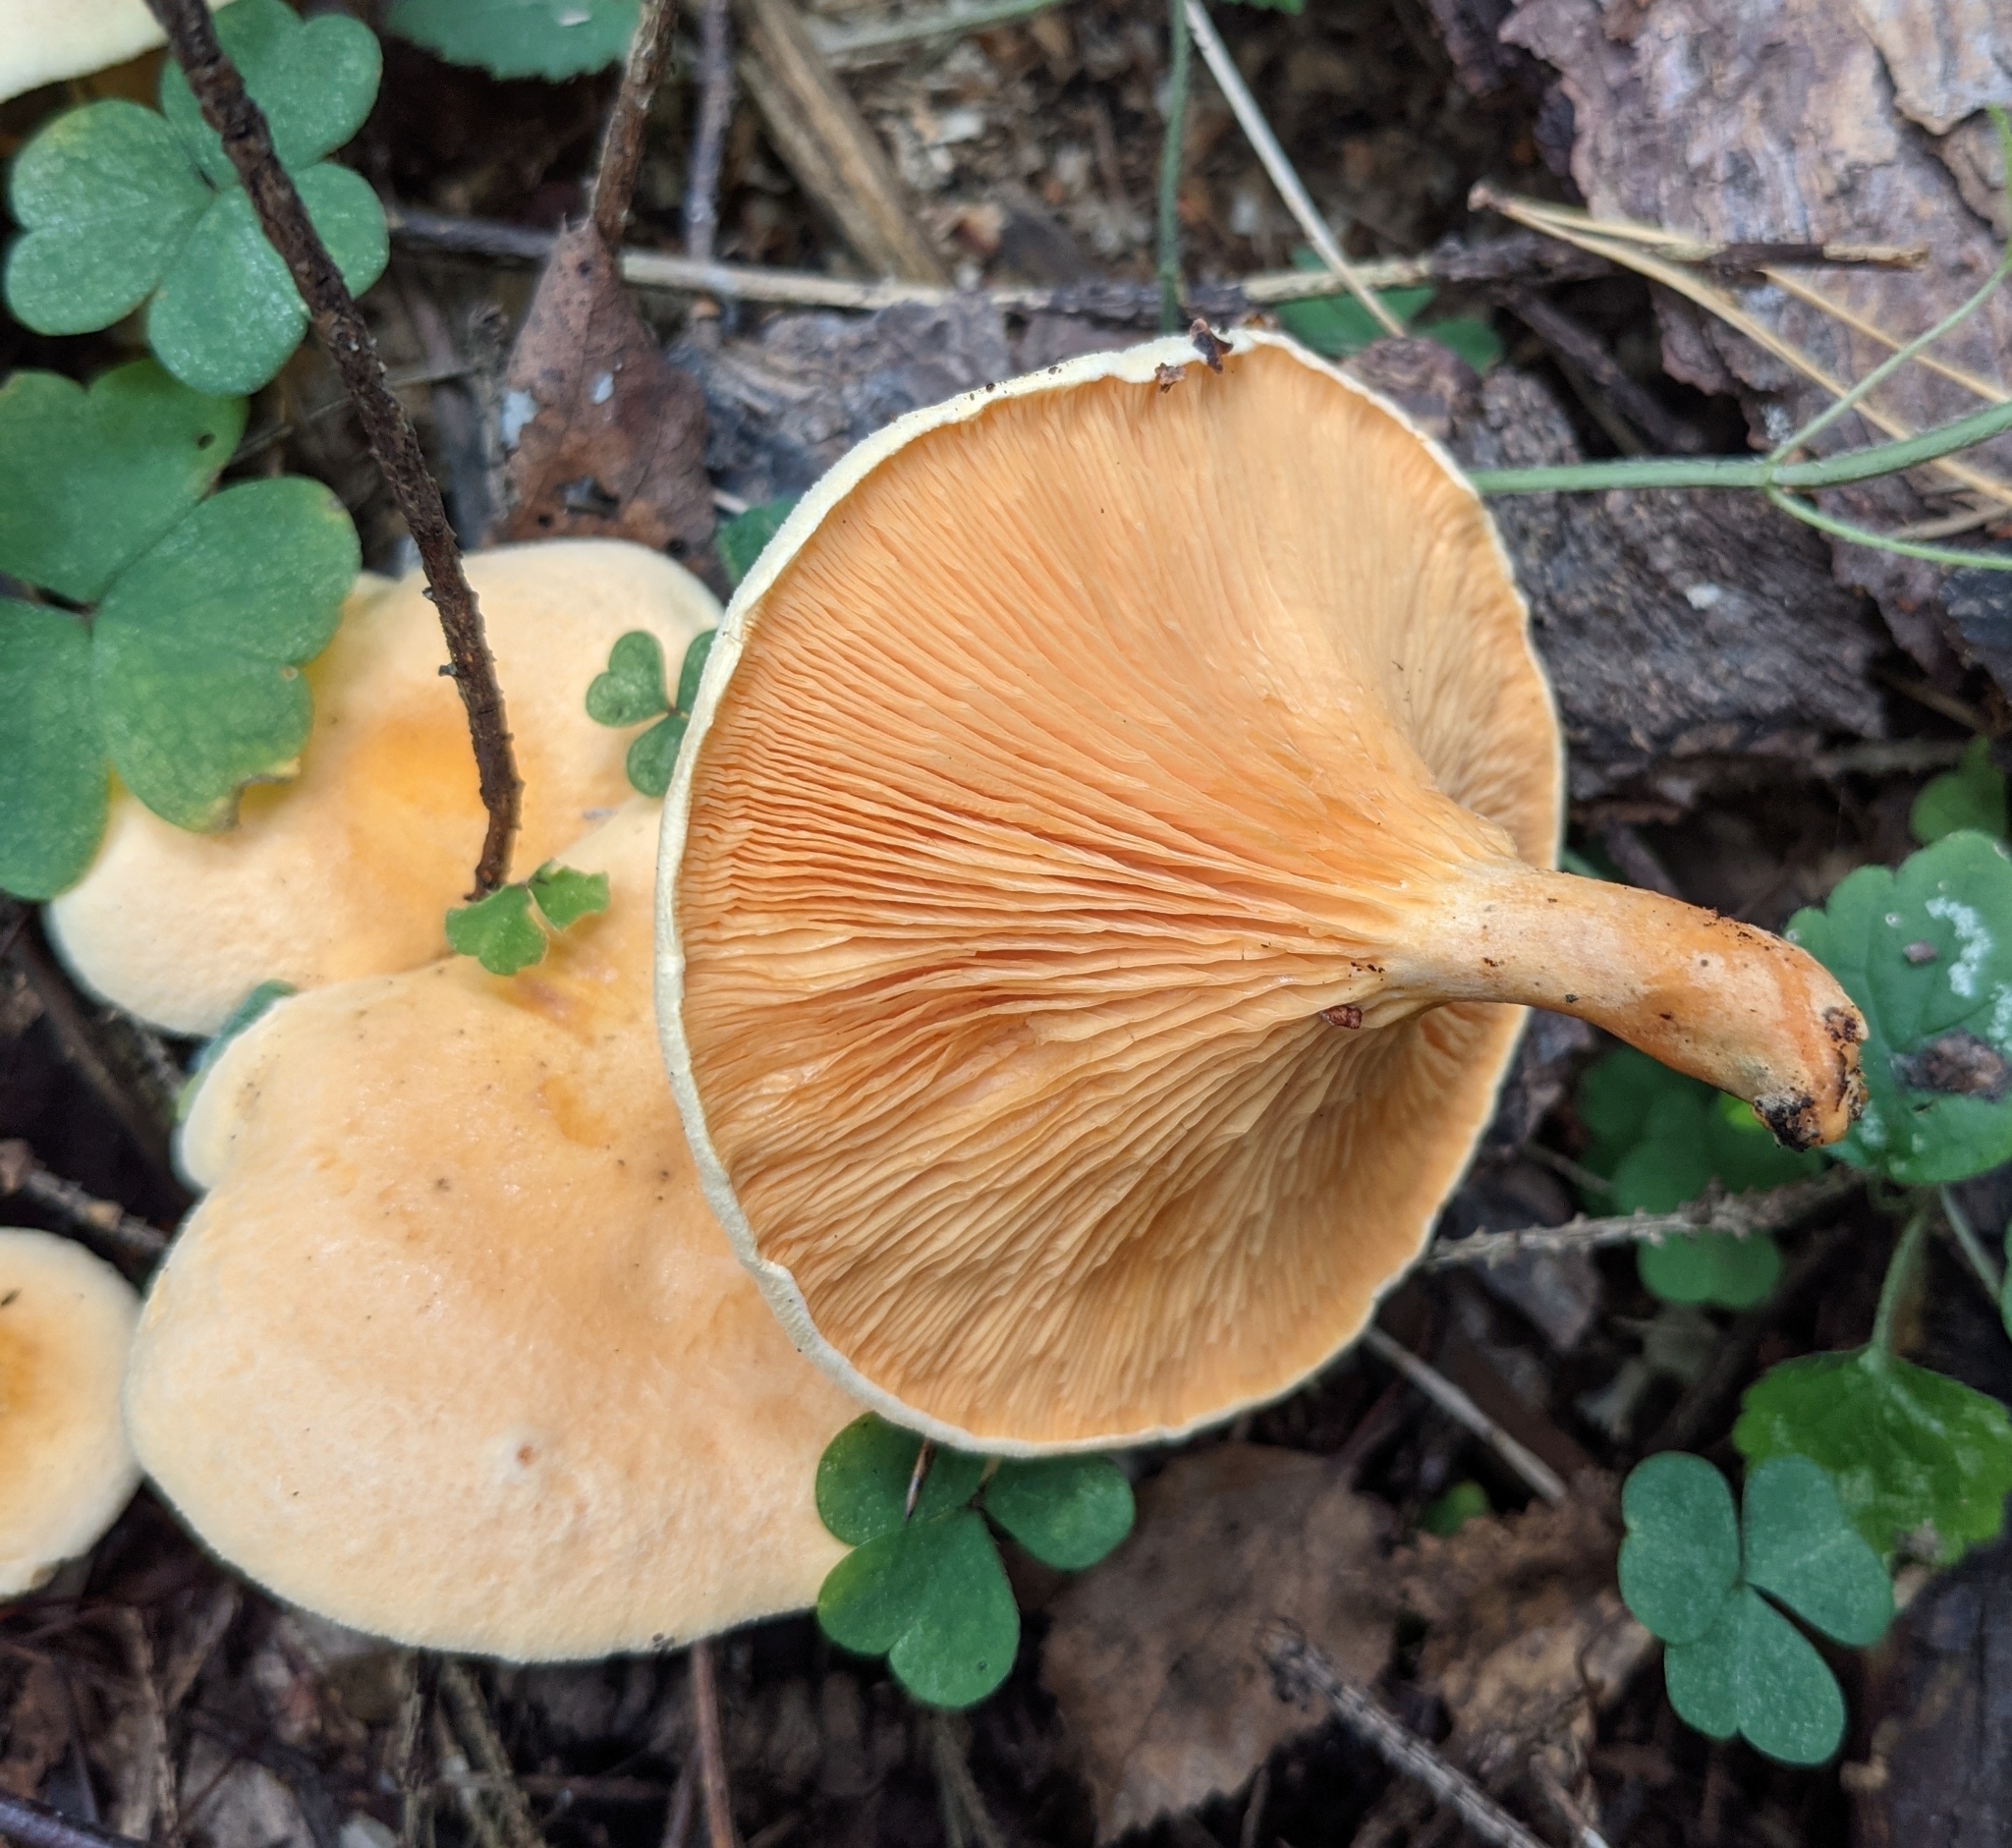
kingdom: Fungi
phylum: Basidiomycota
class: Agaricomycetes
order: Boletales
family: Hygrophoropsidaceae
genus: Hygrophoropsis
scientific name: Hygrophoropsis aurantiaca
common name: False chanterelle
